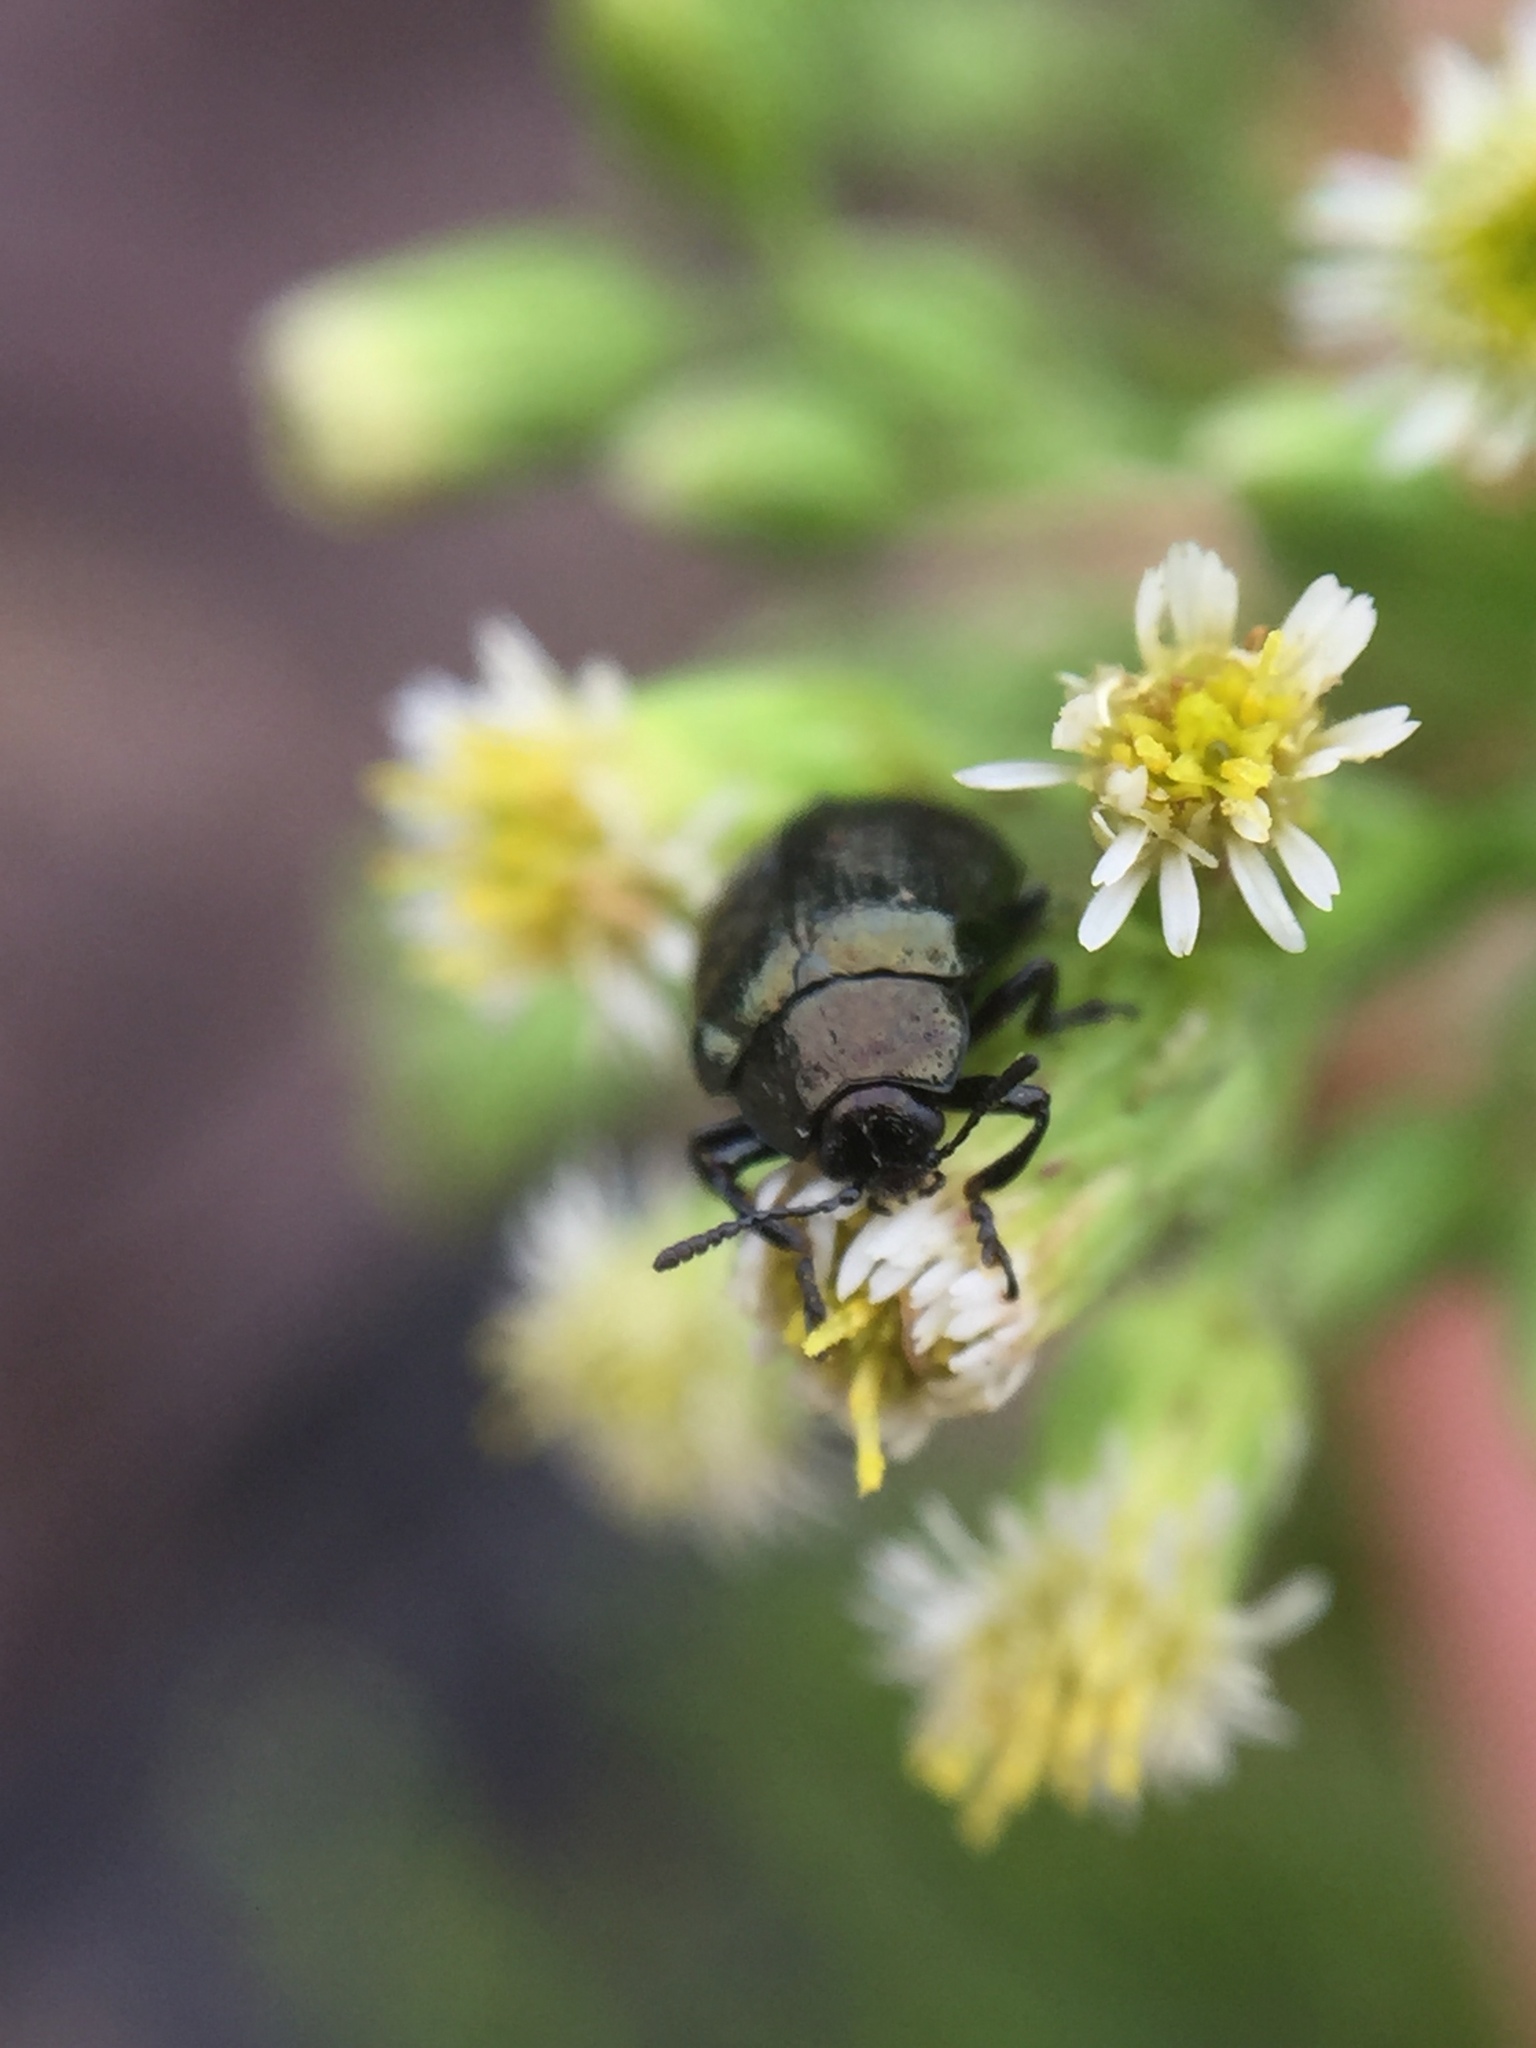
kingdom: Animalia
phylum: Arthropoda
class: Insecta
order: Coleoptera
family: Chrysomelidae
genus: Plagiodera
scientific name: Plagiodera californica
